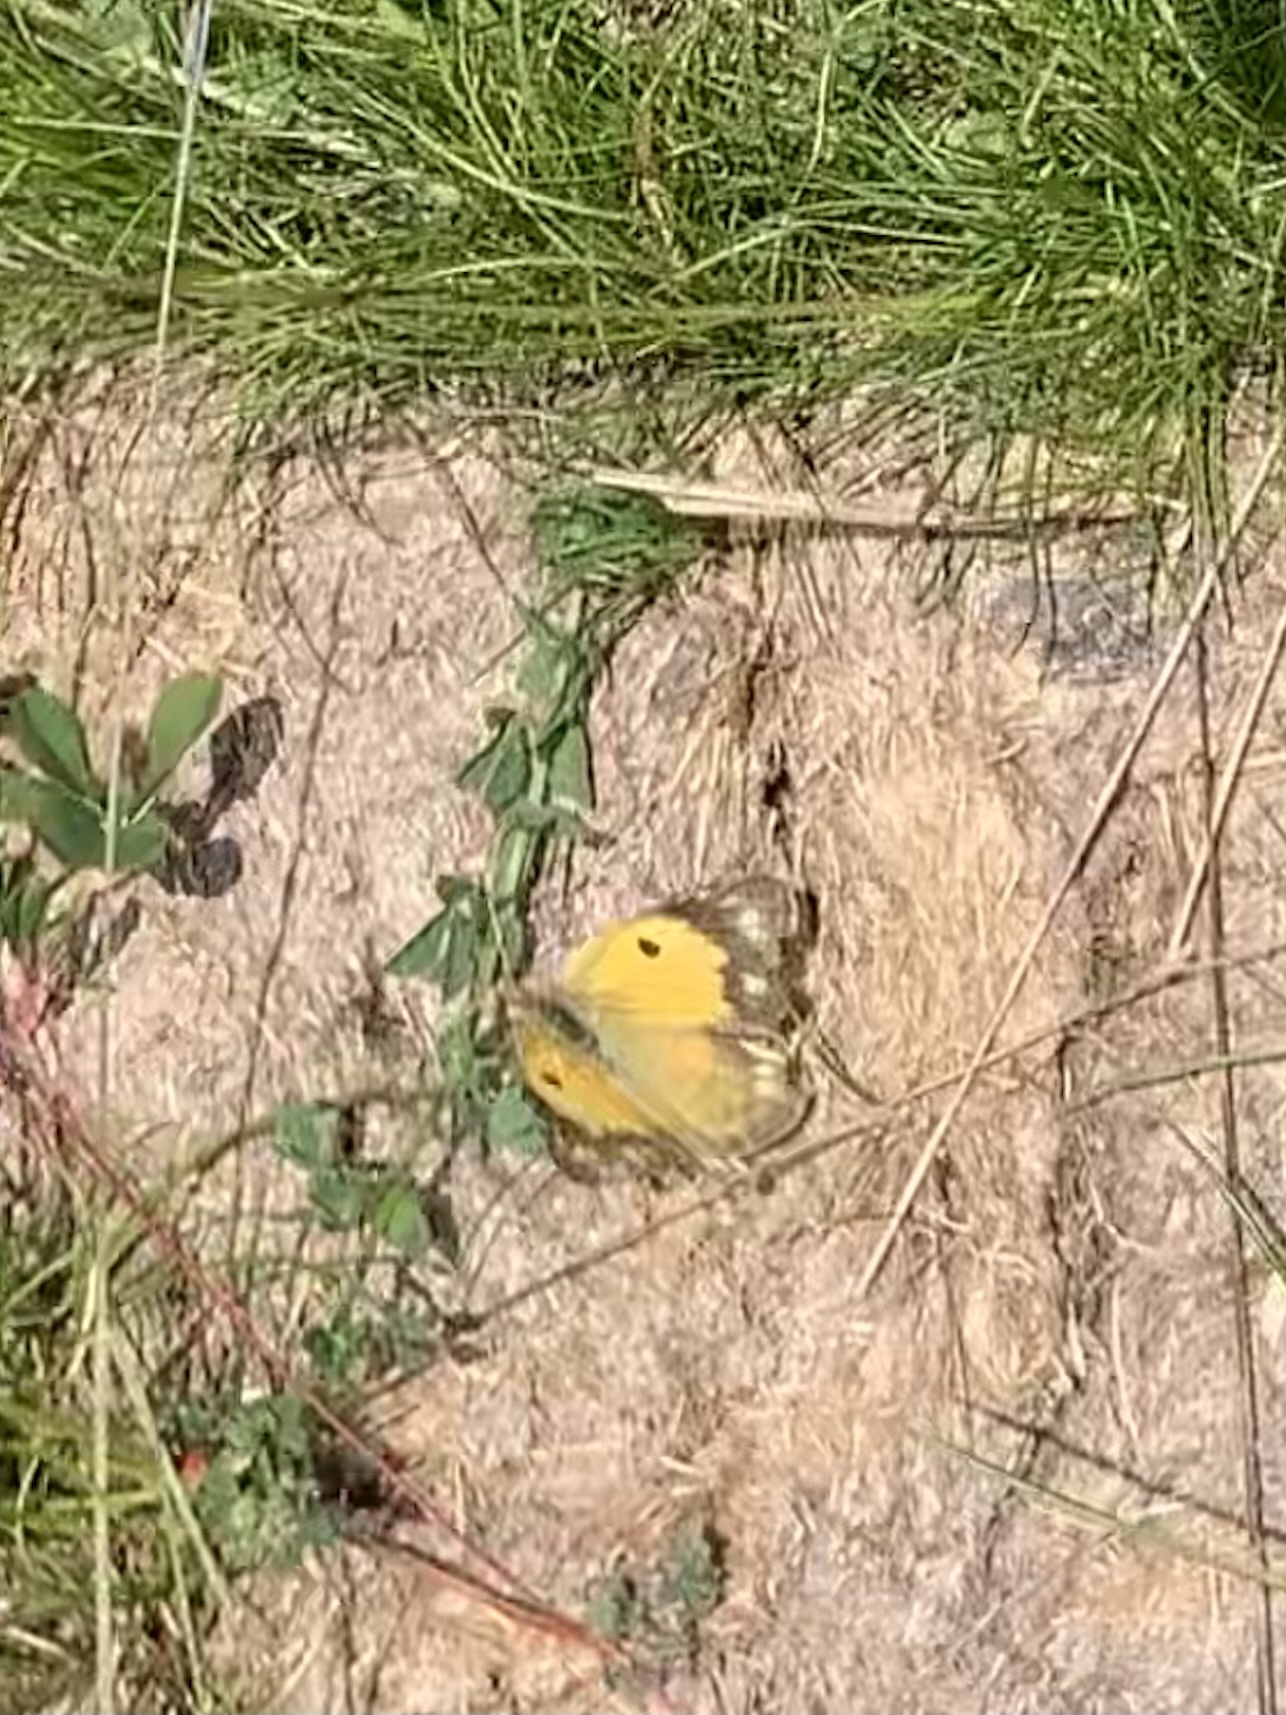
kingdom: Animalia
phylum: Arthropoda
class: Insecta
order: Lepidoptera
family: Pieridae
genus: Colias
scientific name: Colias croceus
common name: Clouded yellow
